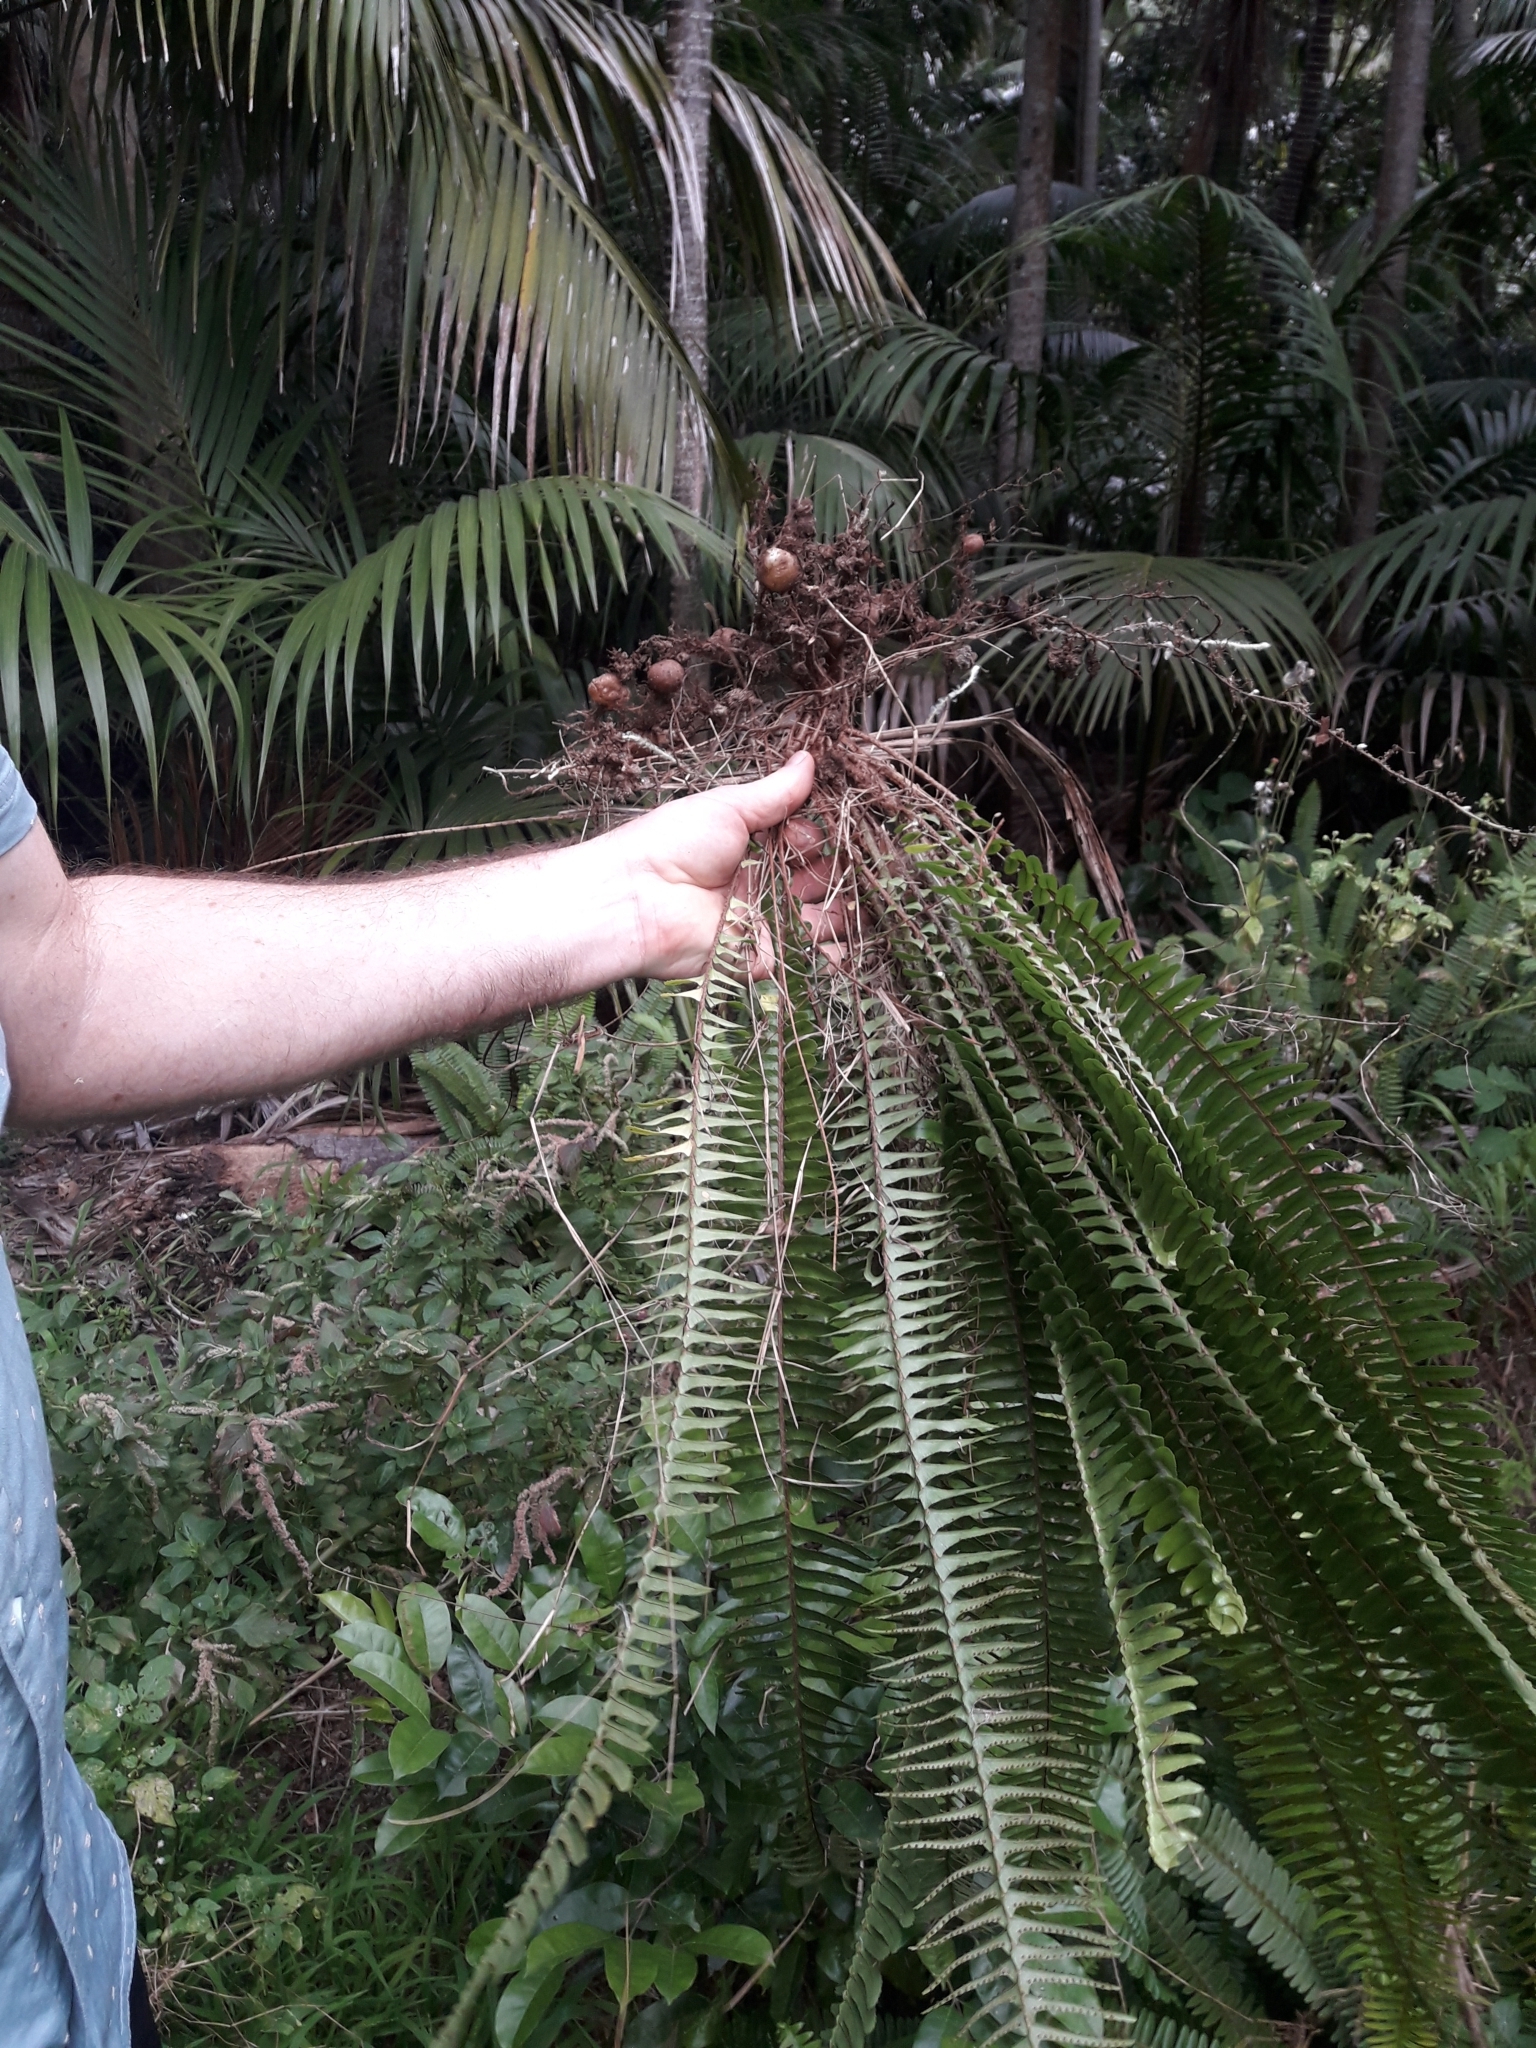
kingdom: Plantae
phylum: Tracheophyta
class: Polypodiopsida
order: Polypodiales
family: Nephrolepidaceae
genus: Nephrolepis
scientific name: Nephrolepis cordifolia
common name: Narrow swordfern
